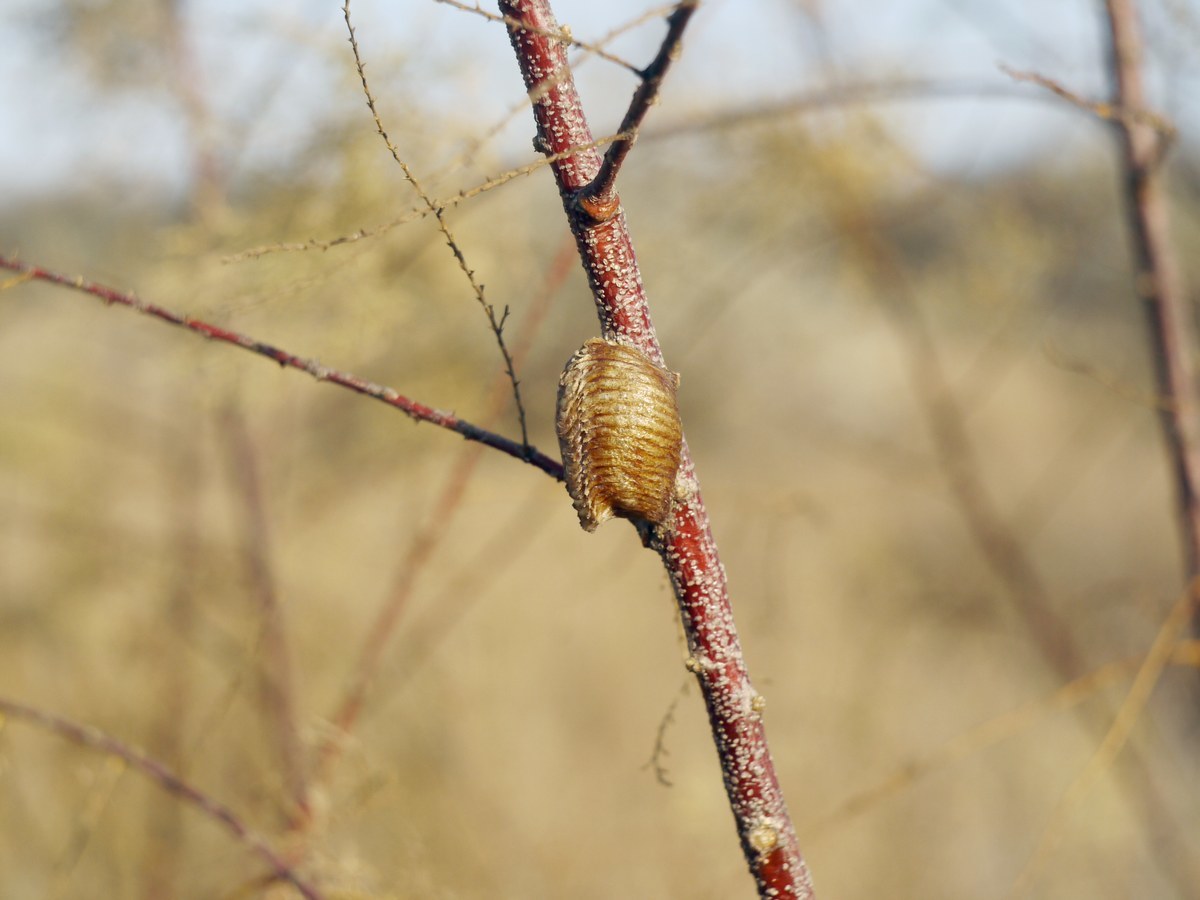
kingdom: Animalia
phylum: Arthropoda
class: Insecta
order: Mantodea
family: Mantidae
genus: Hierodula
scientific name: Hierodula transcaucasica
